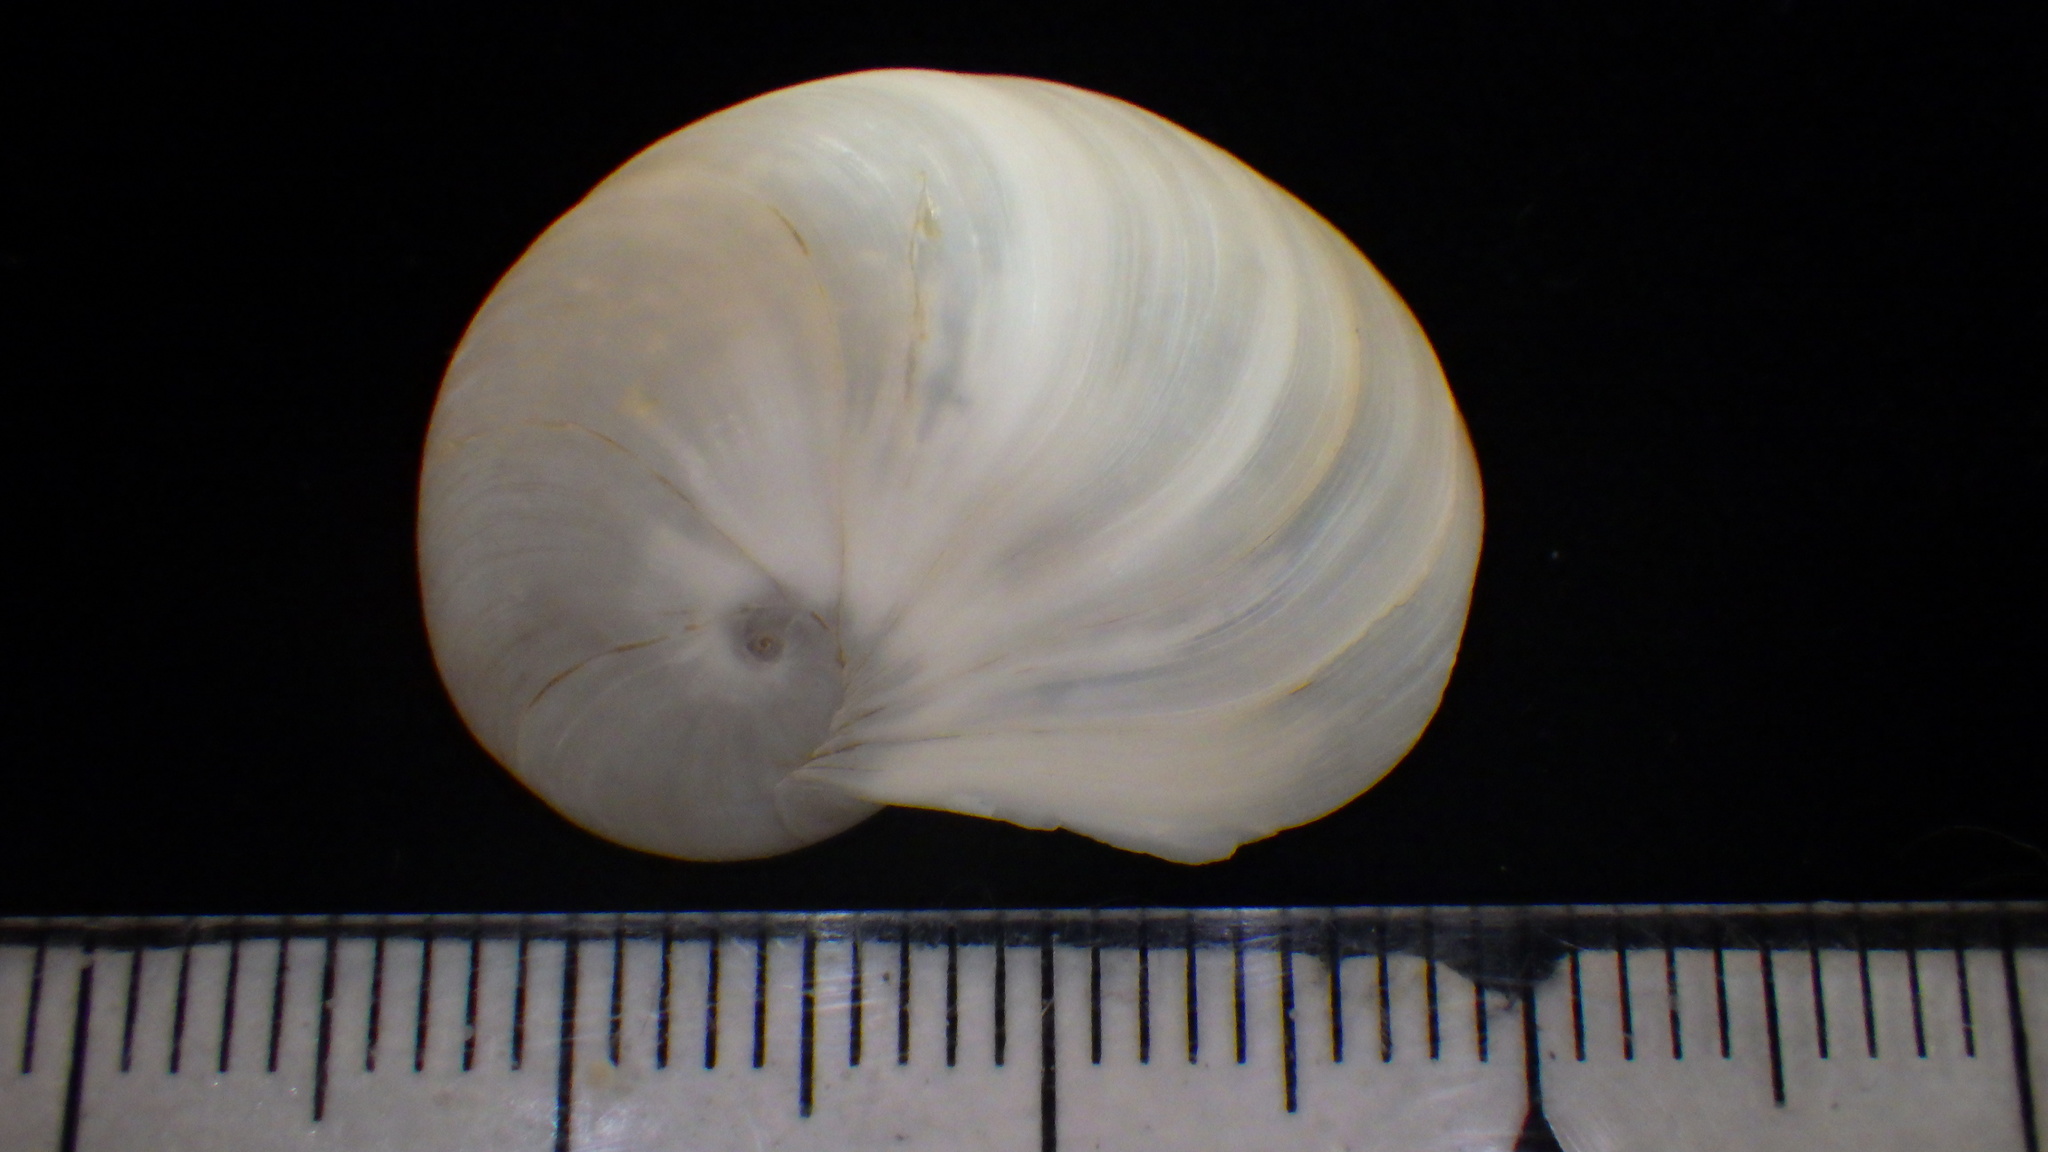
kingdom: Animalia
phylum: Mollusca
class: Gastropoda
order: Littorinimorpha
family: Naticidae
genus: Sinum
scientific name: Sinum planulatum
